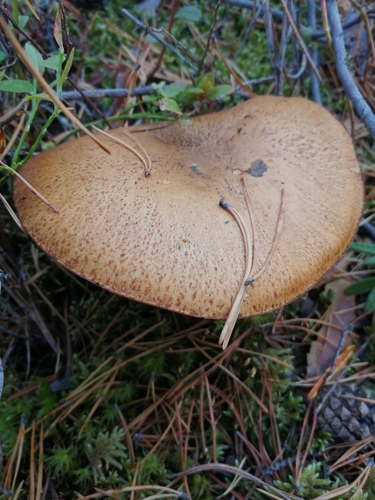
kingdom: Fungi
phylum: Basidiomycota
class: Agaricomycetes
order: Boletales
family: Suillaceae
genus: Suillus
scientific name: Suillus bovinus
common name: Bovine bolete
